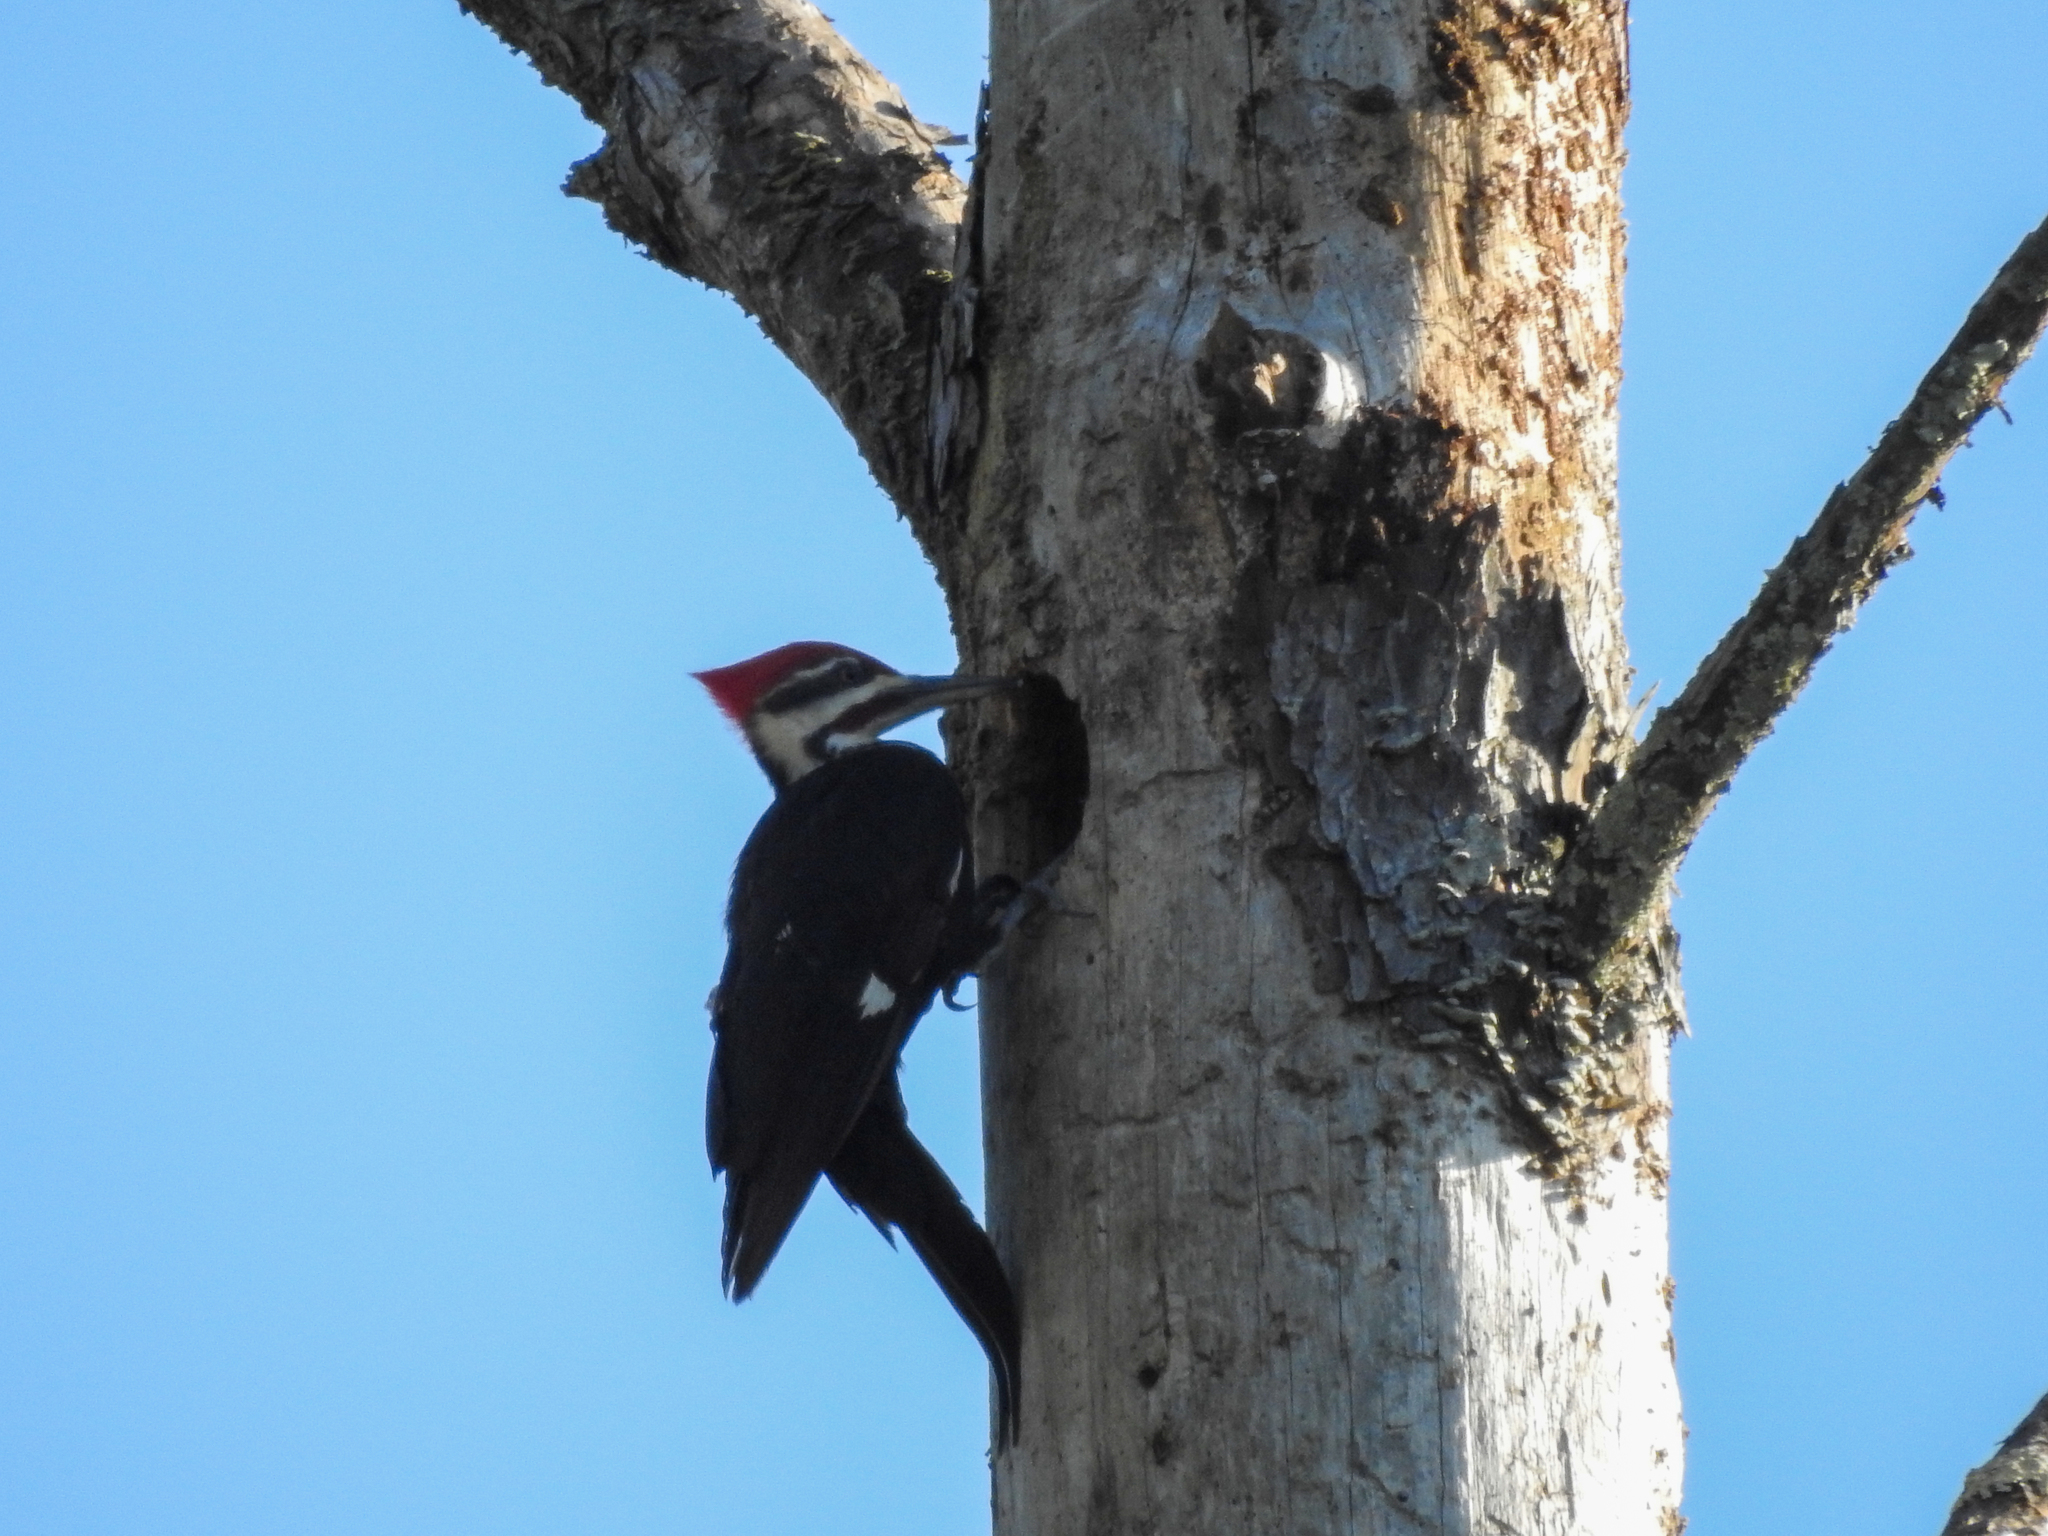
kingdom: Animalia
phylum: Chordata
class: Aves
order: Piciformes
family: Picidae
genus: Dryocopus
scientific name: Dryocopus pileatus
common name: Pileated woodpecker
